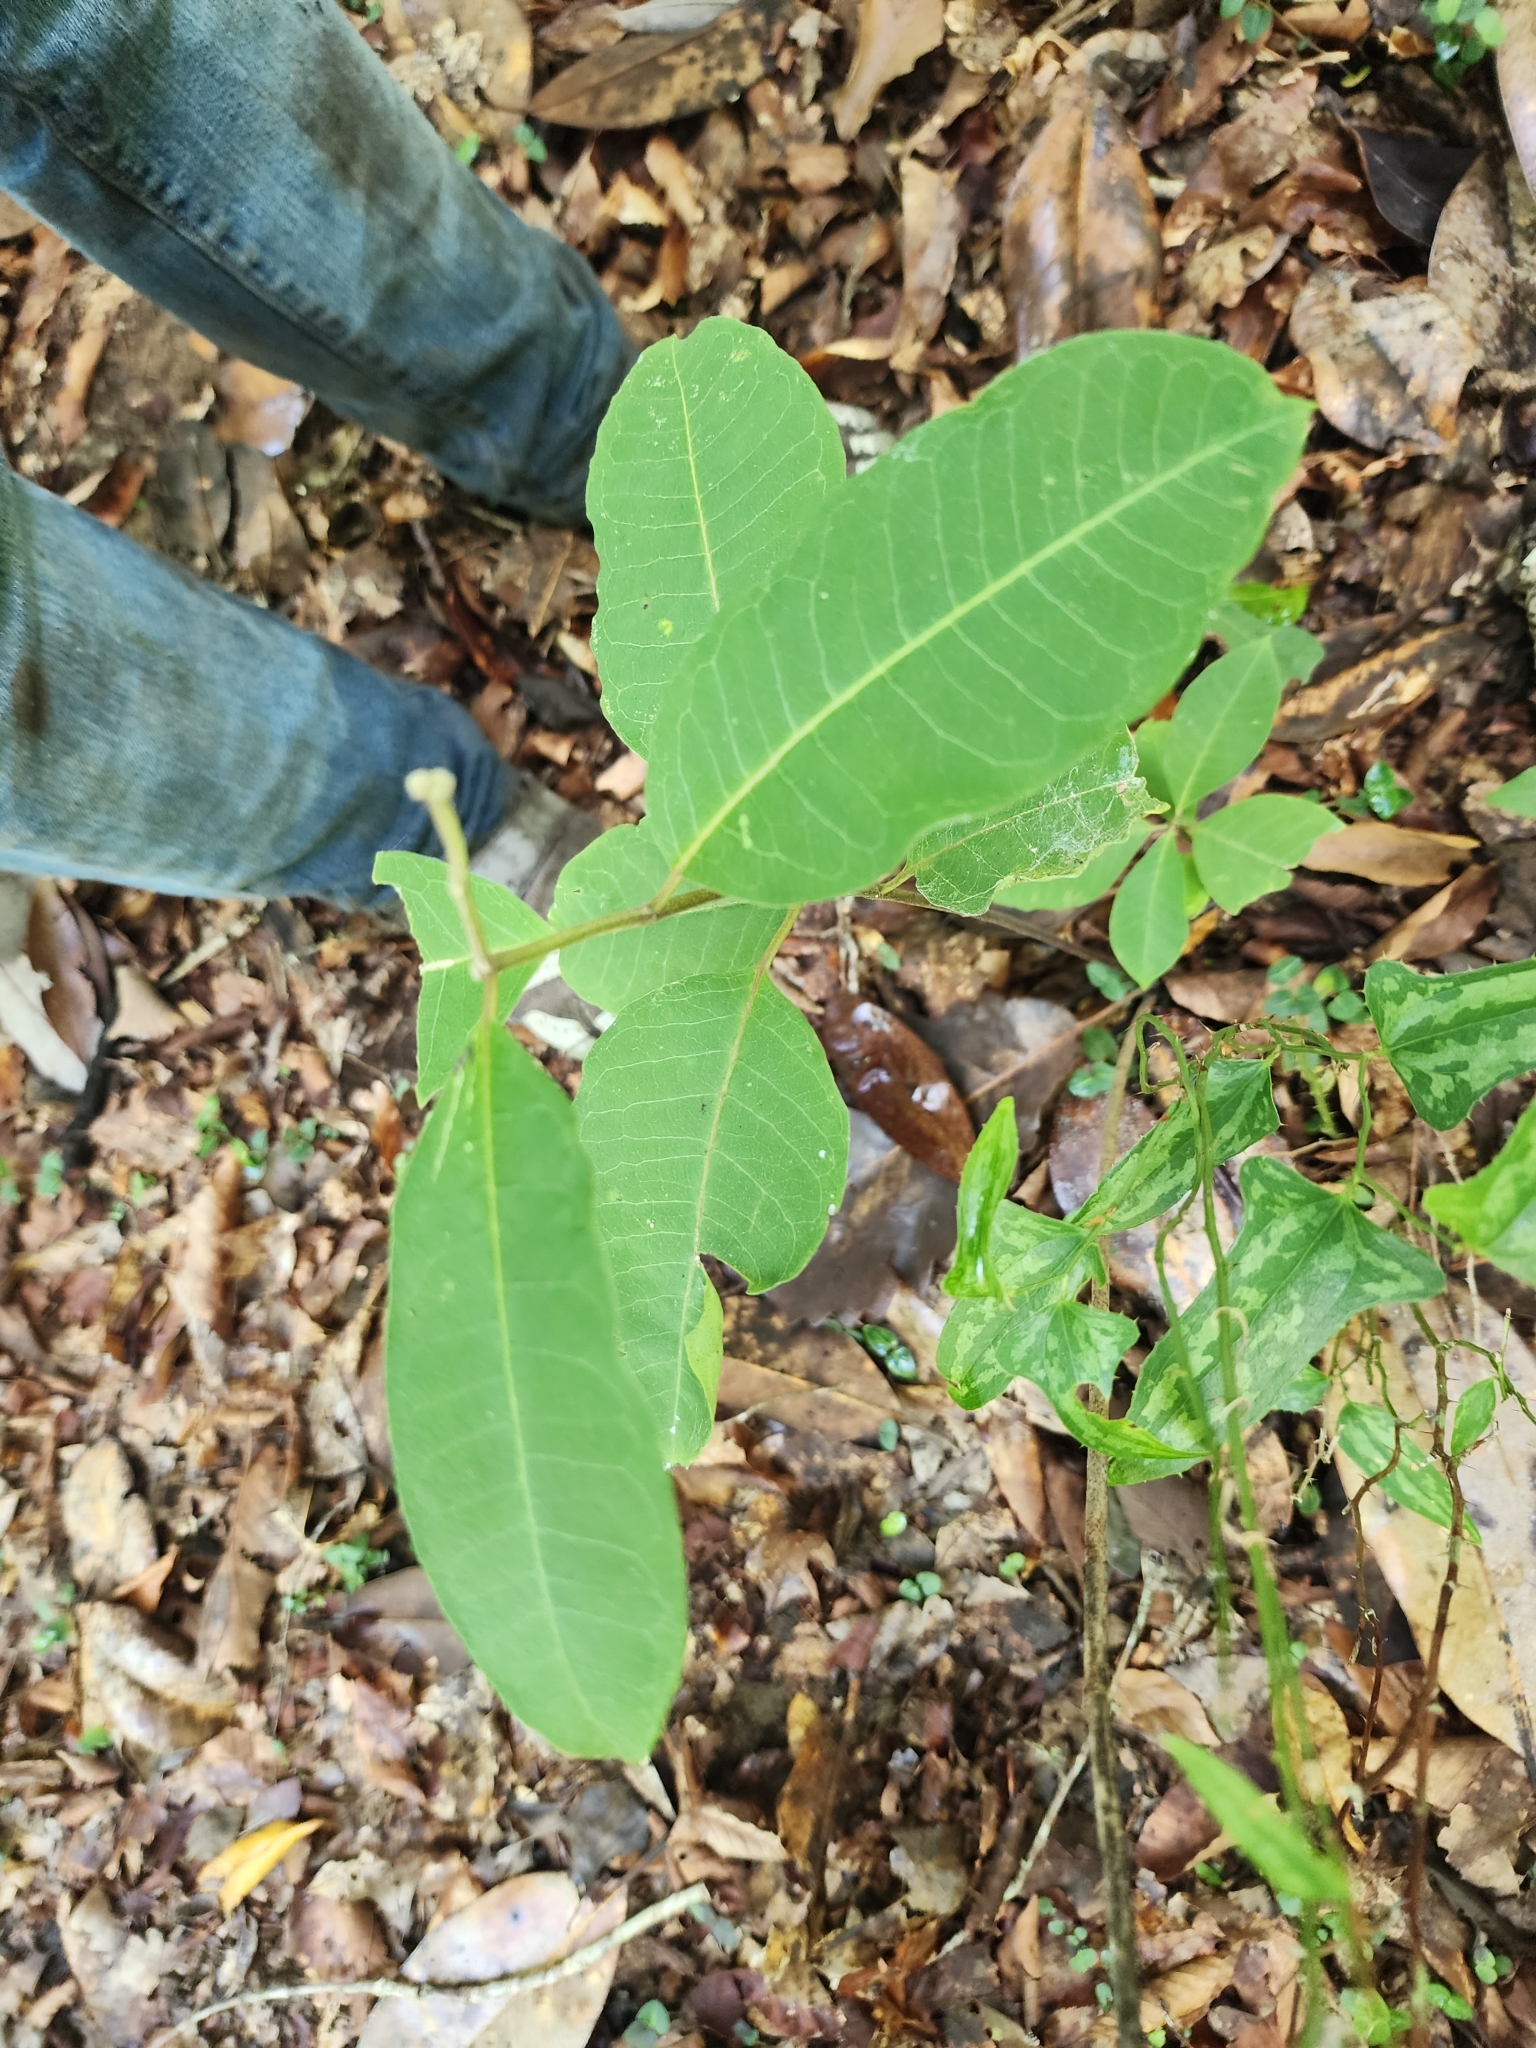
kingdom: Plantae
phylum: Tracheophyta
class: Magnoliopsida
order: Gentianales
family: Apocynaceae
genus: Asclepias
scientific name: Asclepias variegata
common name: Variegated milkweed
